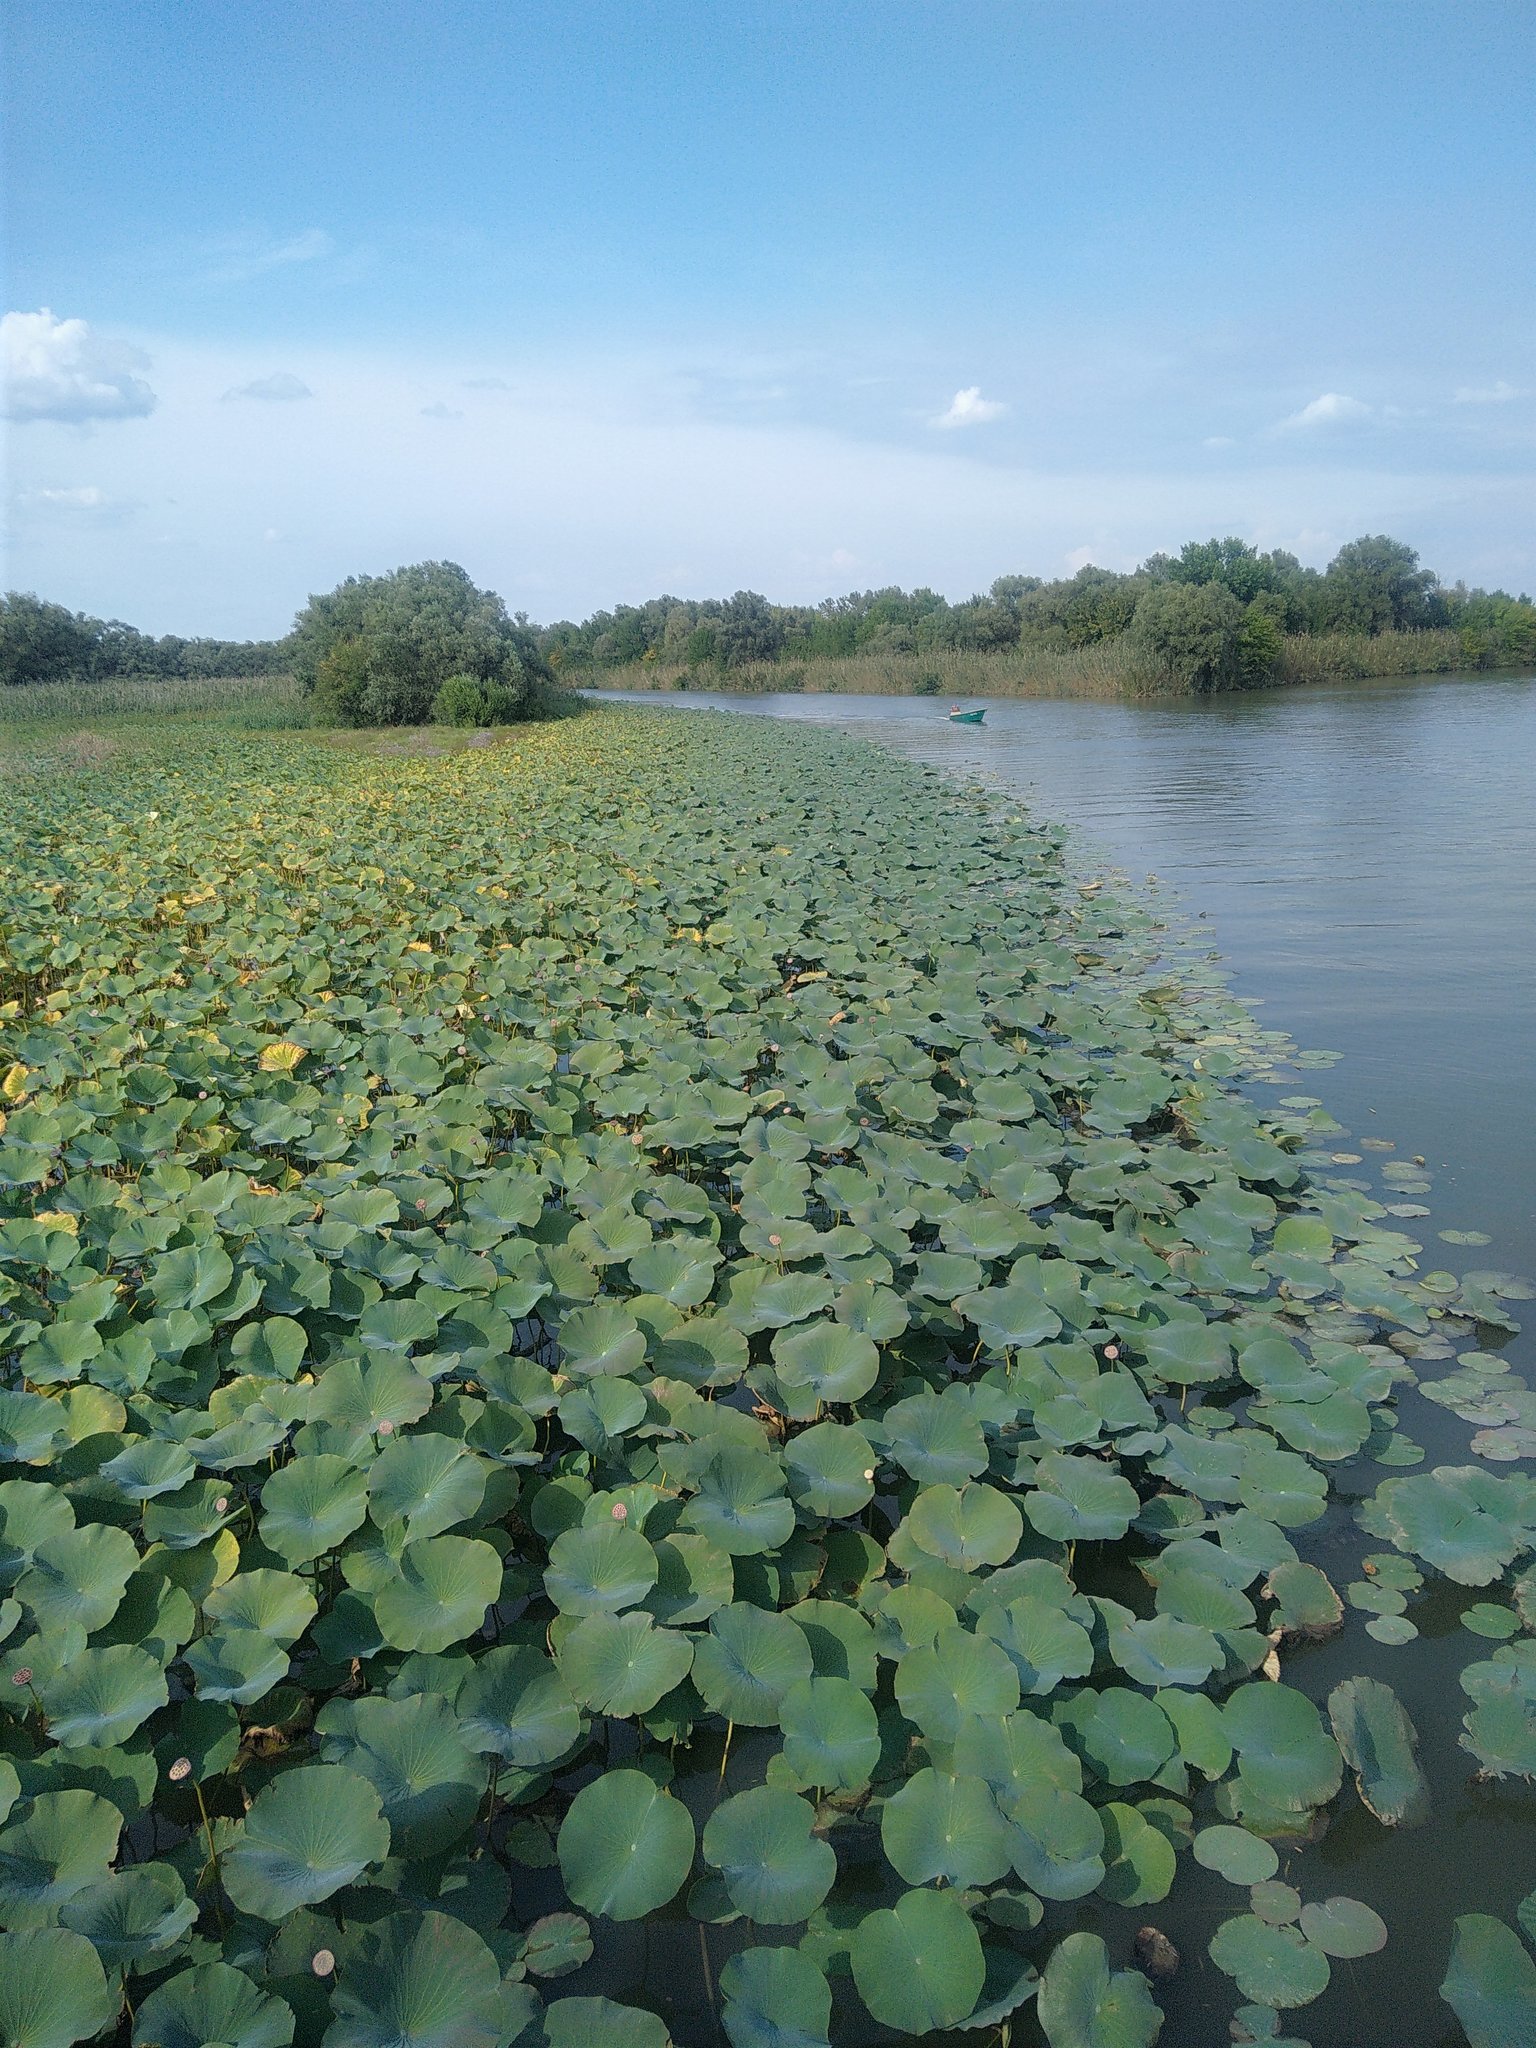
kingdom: Plantae
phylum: Tracheophyta
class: Magnoliopsida
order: Proteales
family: Nelumbonaceae
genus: Nelumbo
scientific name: Nelumbo nucifera
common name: Sacred lotus
